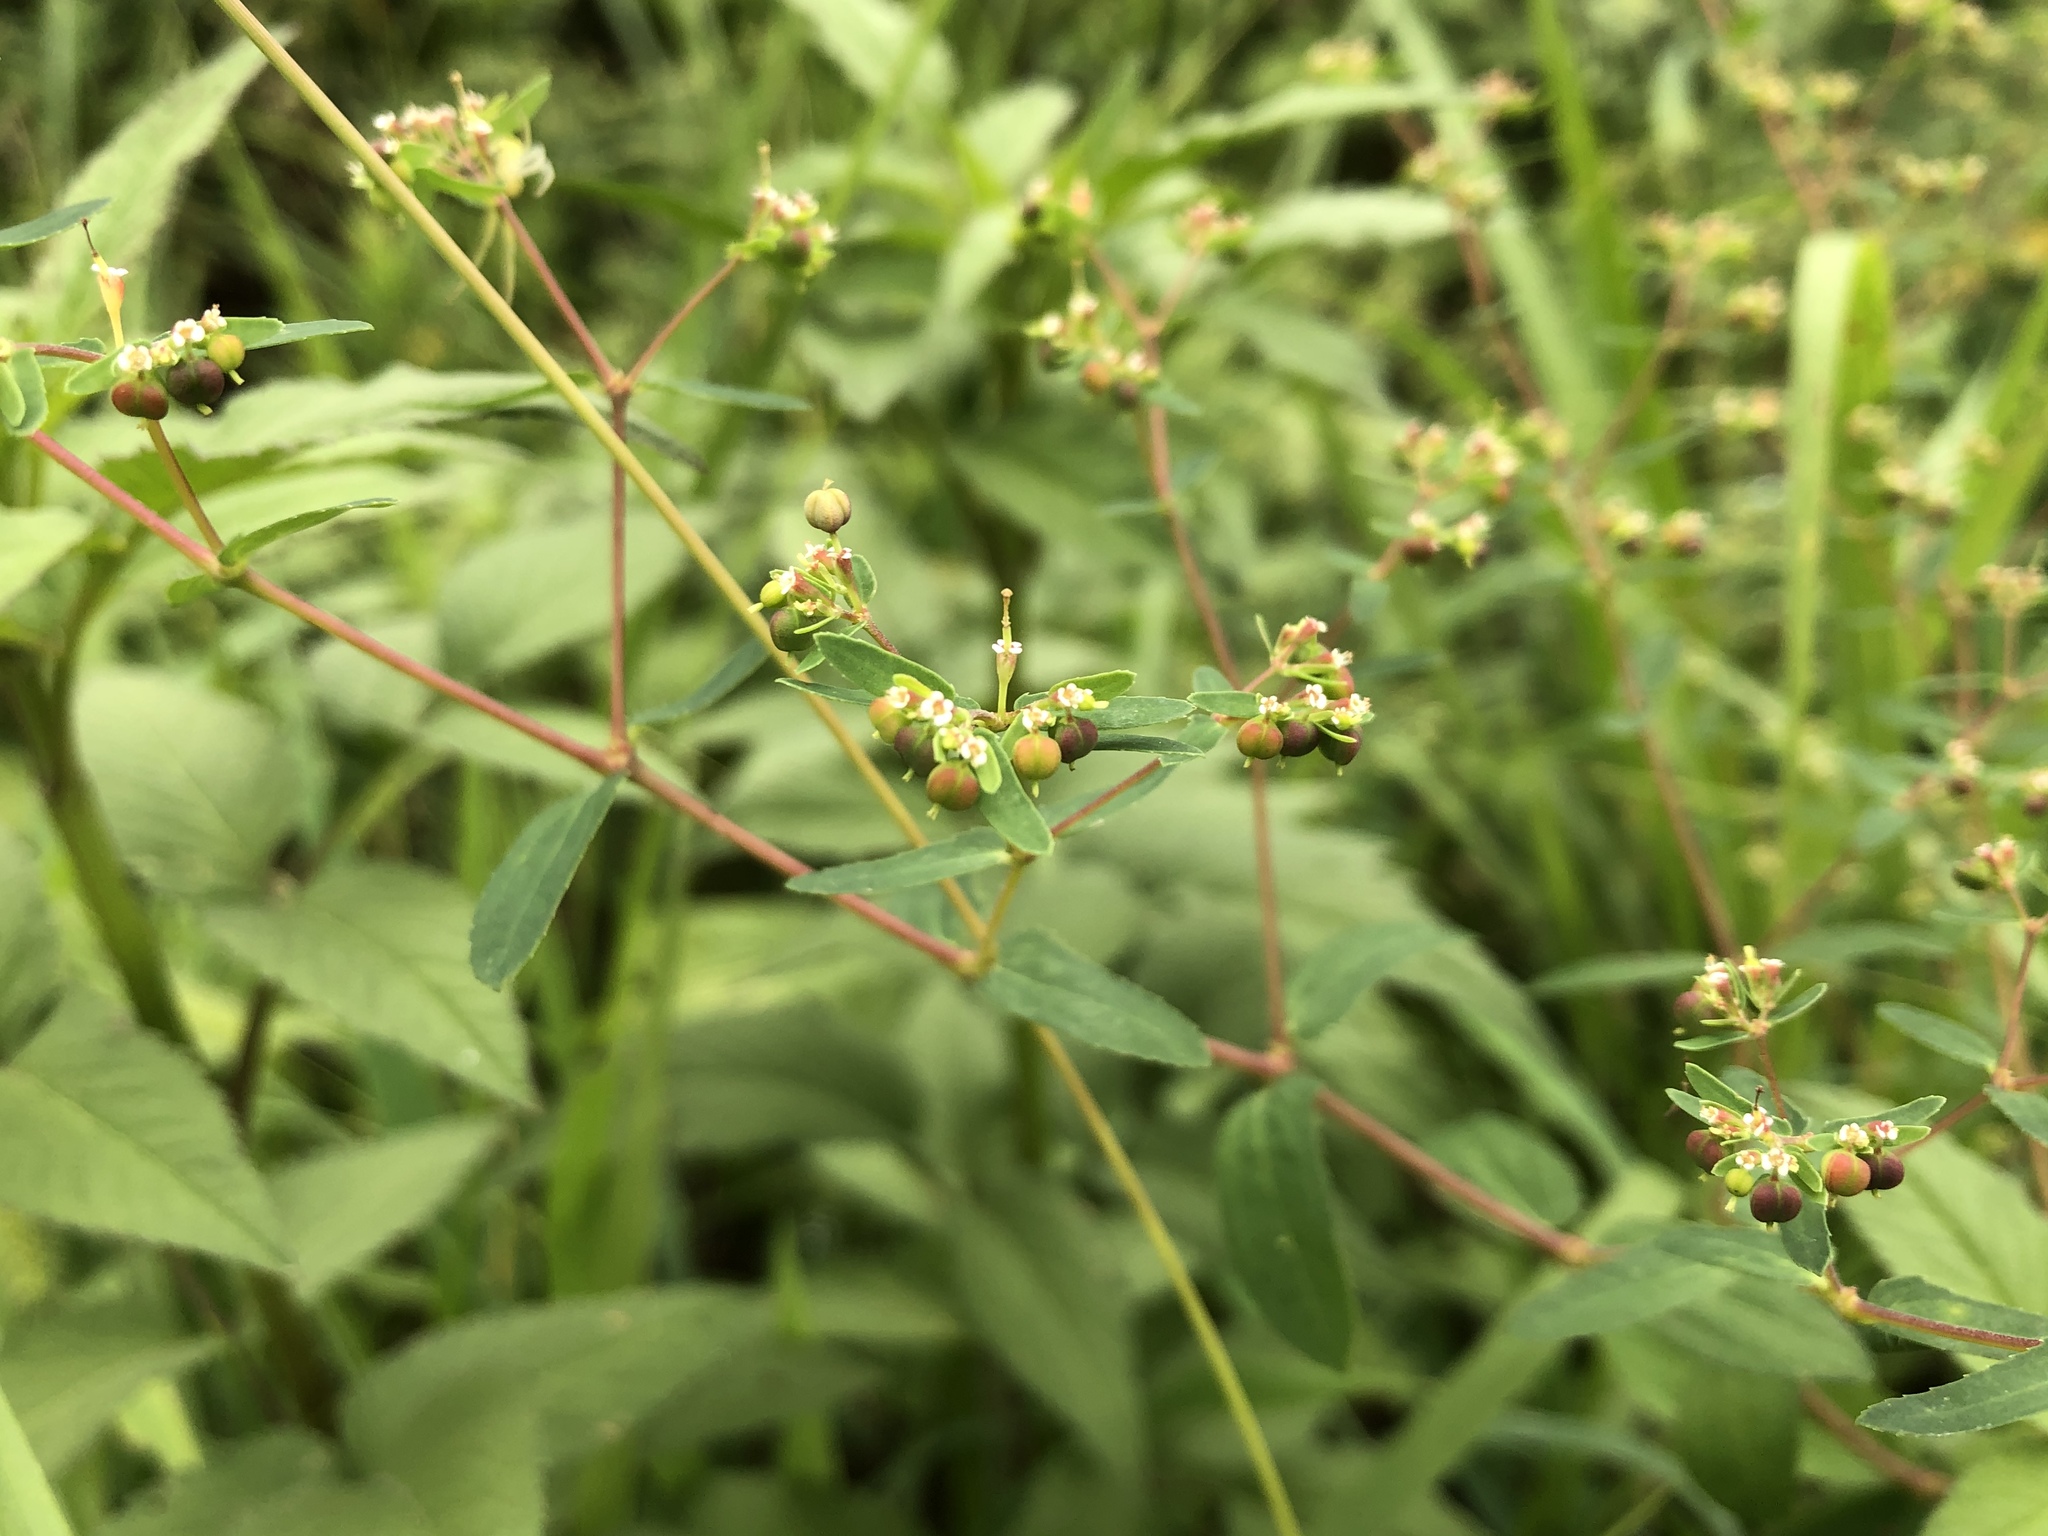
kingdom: Plantae
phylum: Tracheophyta
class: Magnoliopsida
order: Malpighiales
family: Euphorbiaceae
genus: Euphorbia
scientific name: Euphorbia nutans
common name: Eyebane
